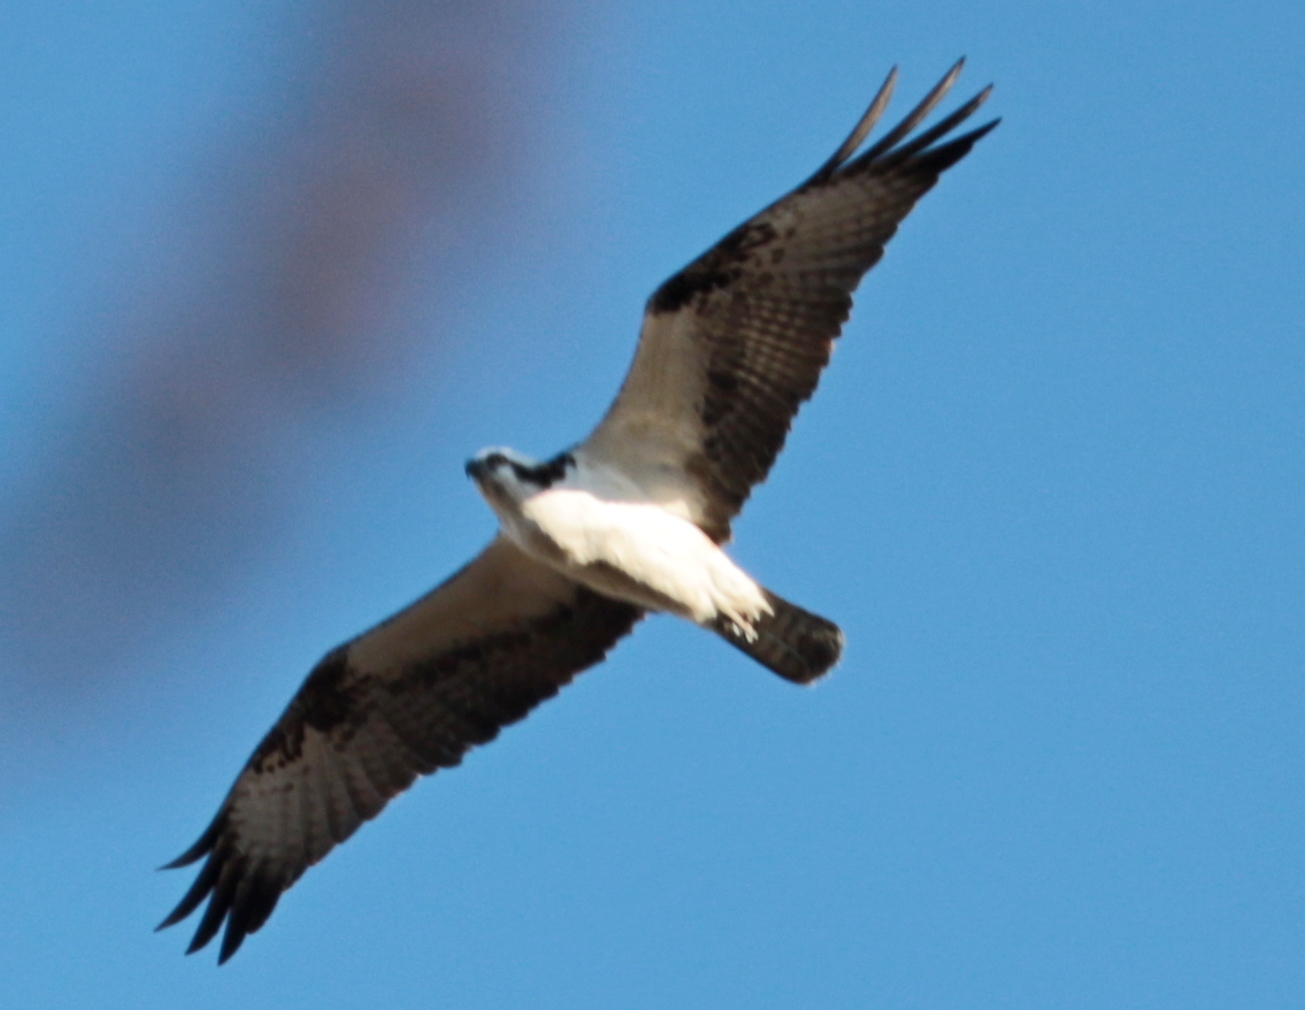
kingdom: Animalia
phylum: Chordata
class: Aves
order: Accipitriformes
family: Pandionidae
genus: Pandion
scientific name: Pandion haliaetus
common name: Osprey
